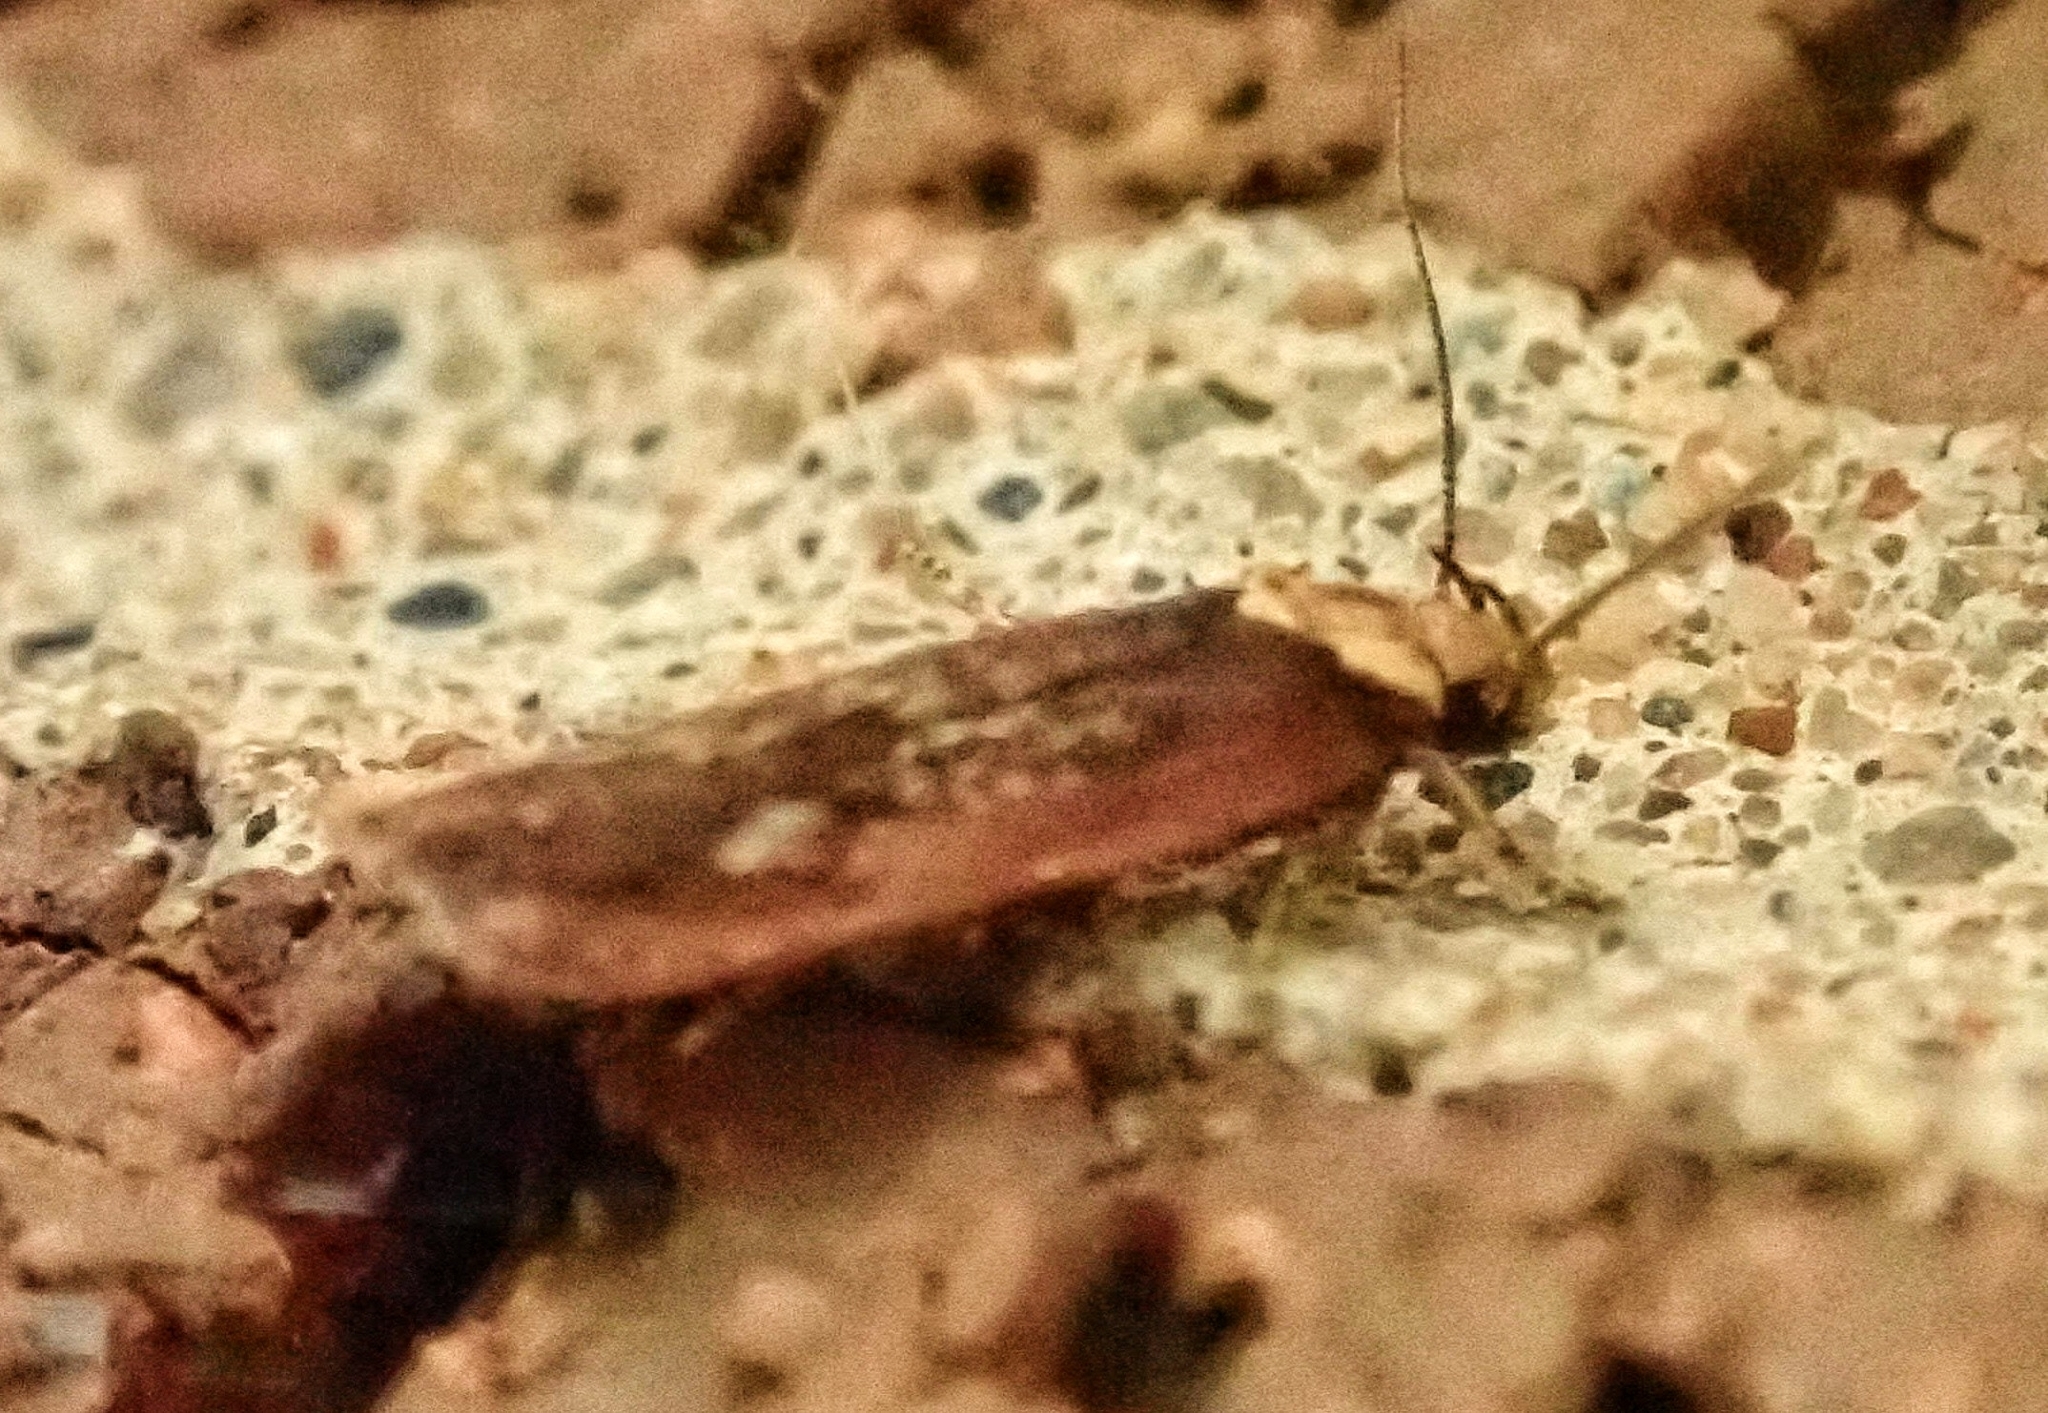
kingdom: Animalia
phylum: Arthropoda
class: Insecta
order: Lepidoptera
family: Depressariidae
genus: Depressaria
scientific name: Depressaria depressana
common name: Lost flat-body
